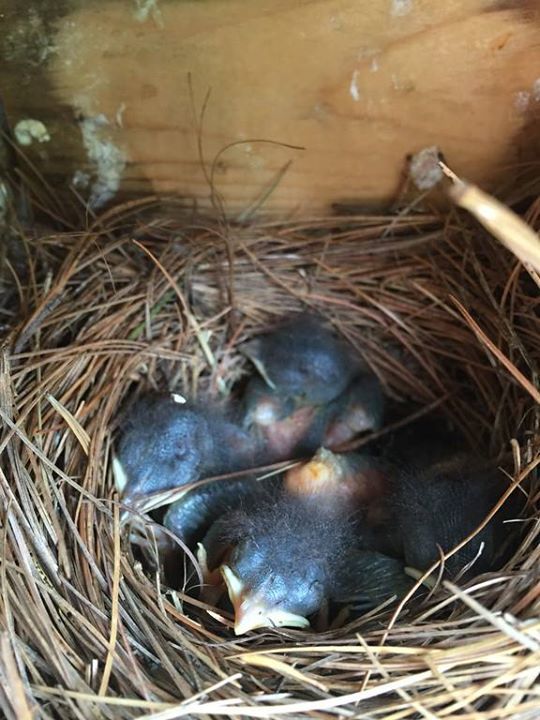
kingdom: Animalia
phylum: Chordata
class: Aves
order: Passeriformes
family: Turdidae
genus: Sialia
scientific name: Sialia sialis
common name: Eastern bluebird
